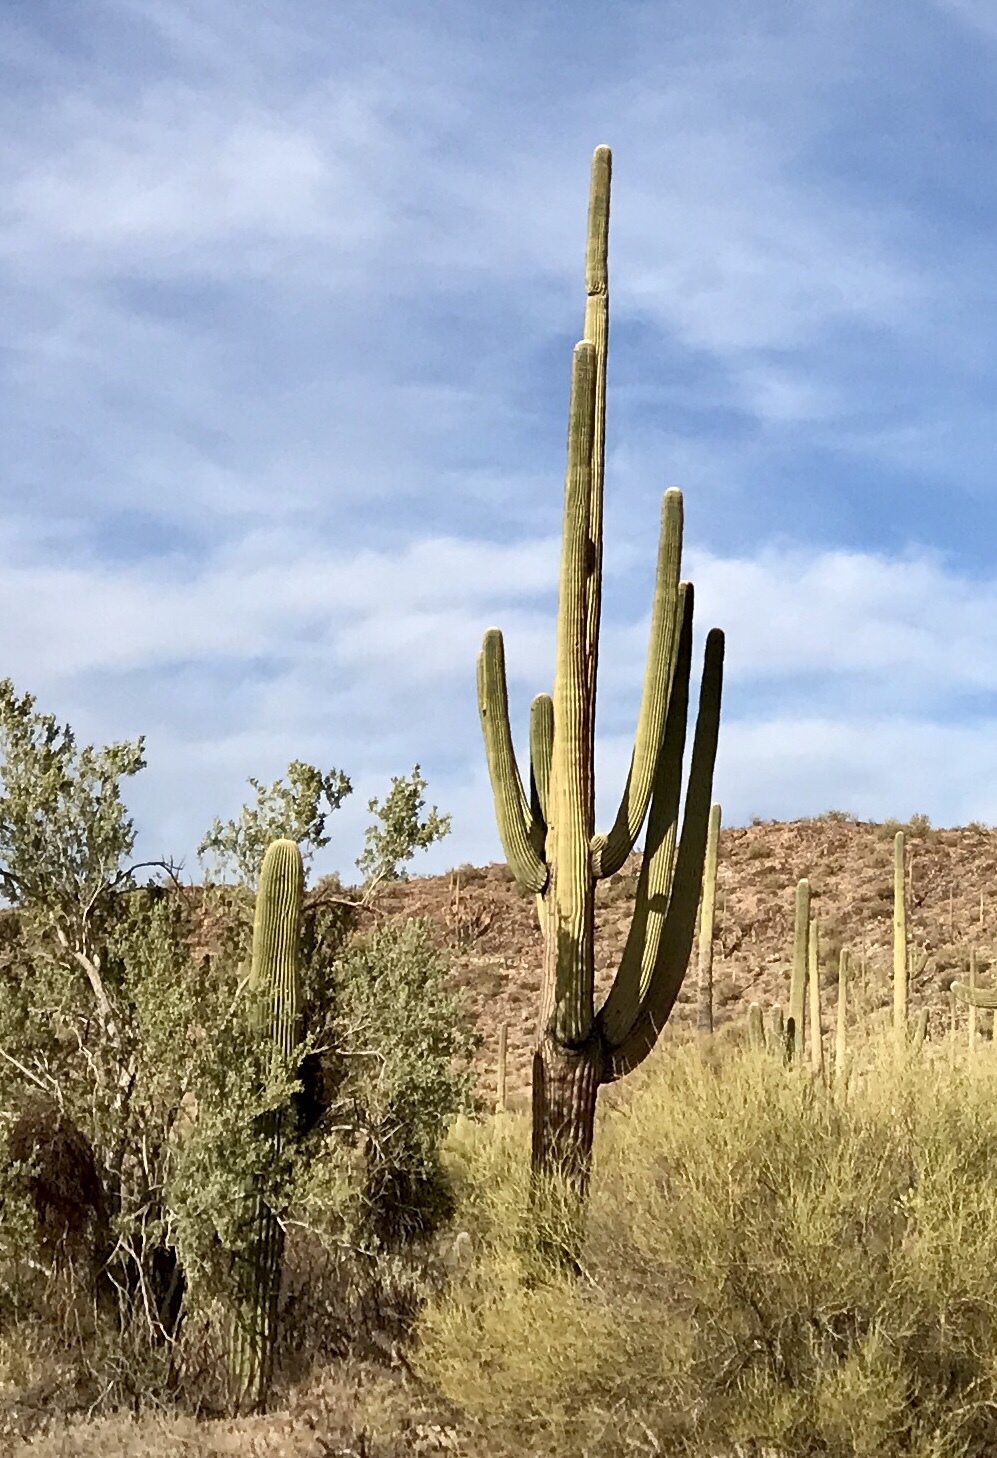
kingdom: Plantae
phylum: Tracheophyta
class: Magnoliopsida
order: Caryophyllales
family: Cactaceae
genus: Carnegiea
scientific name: Carnegiea gigantea
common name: Saguaro
